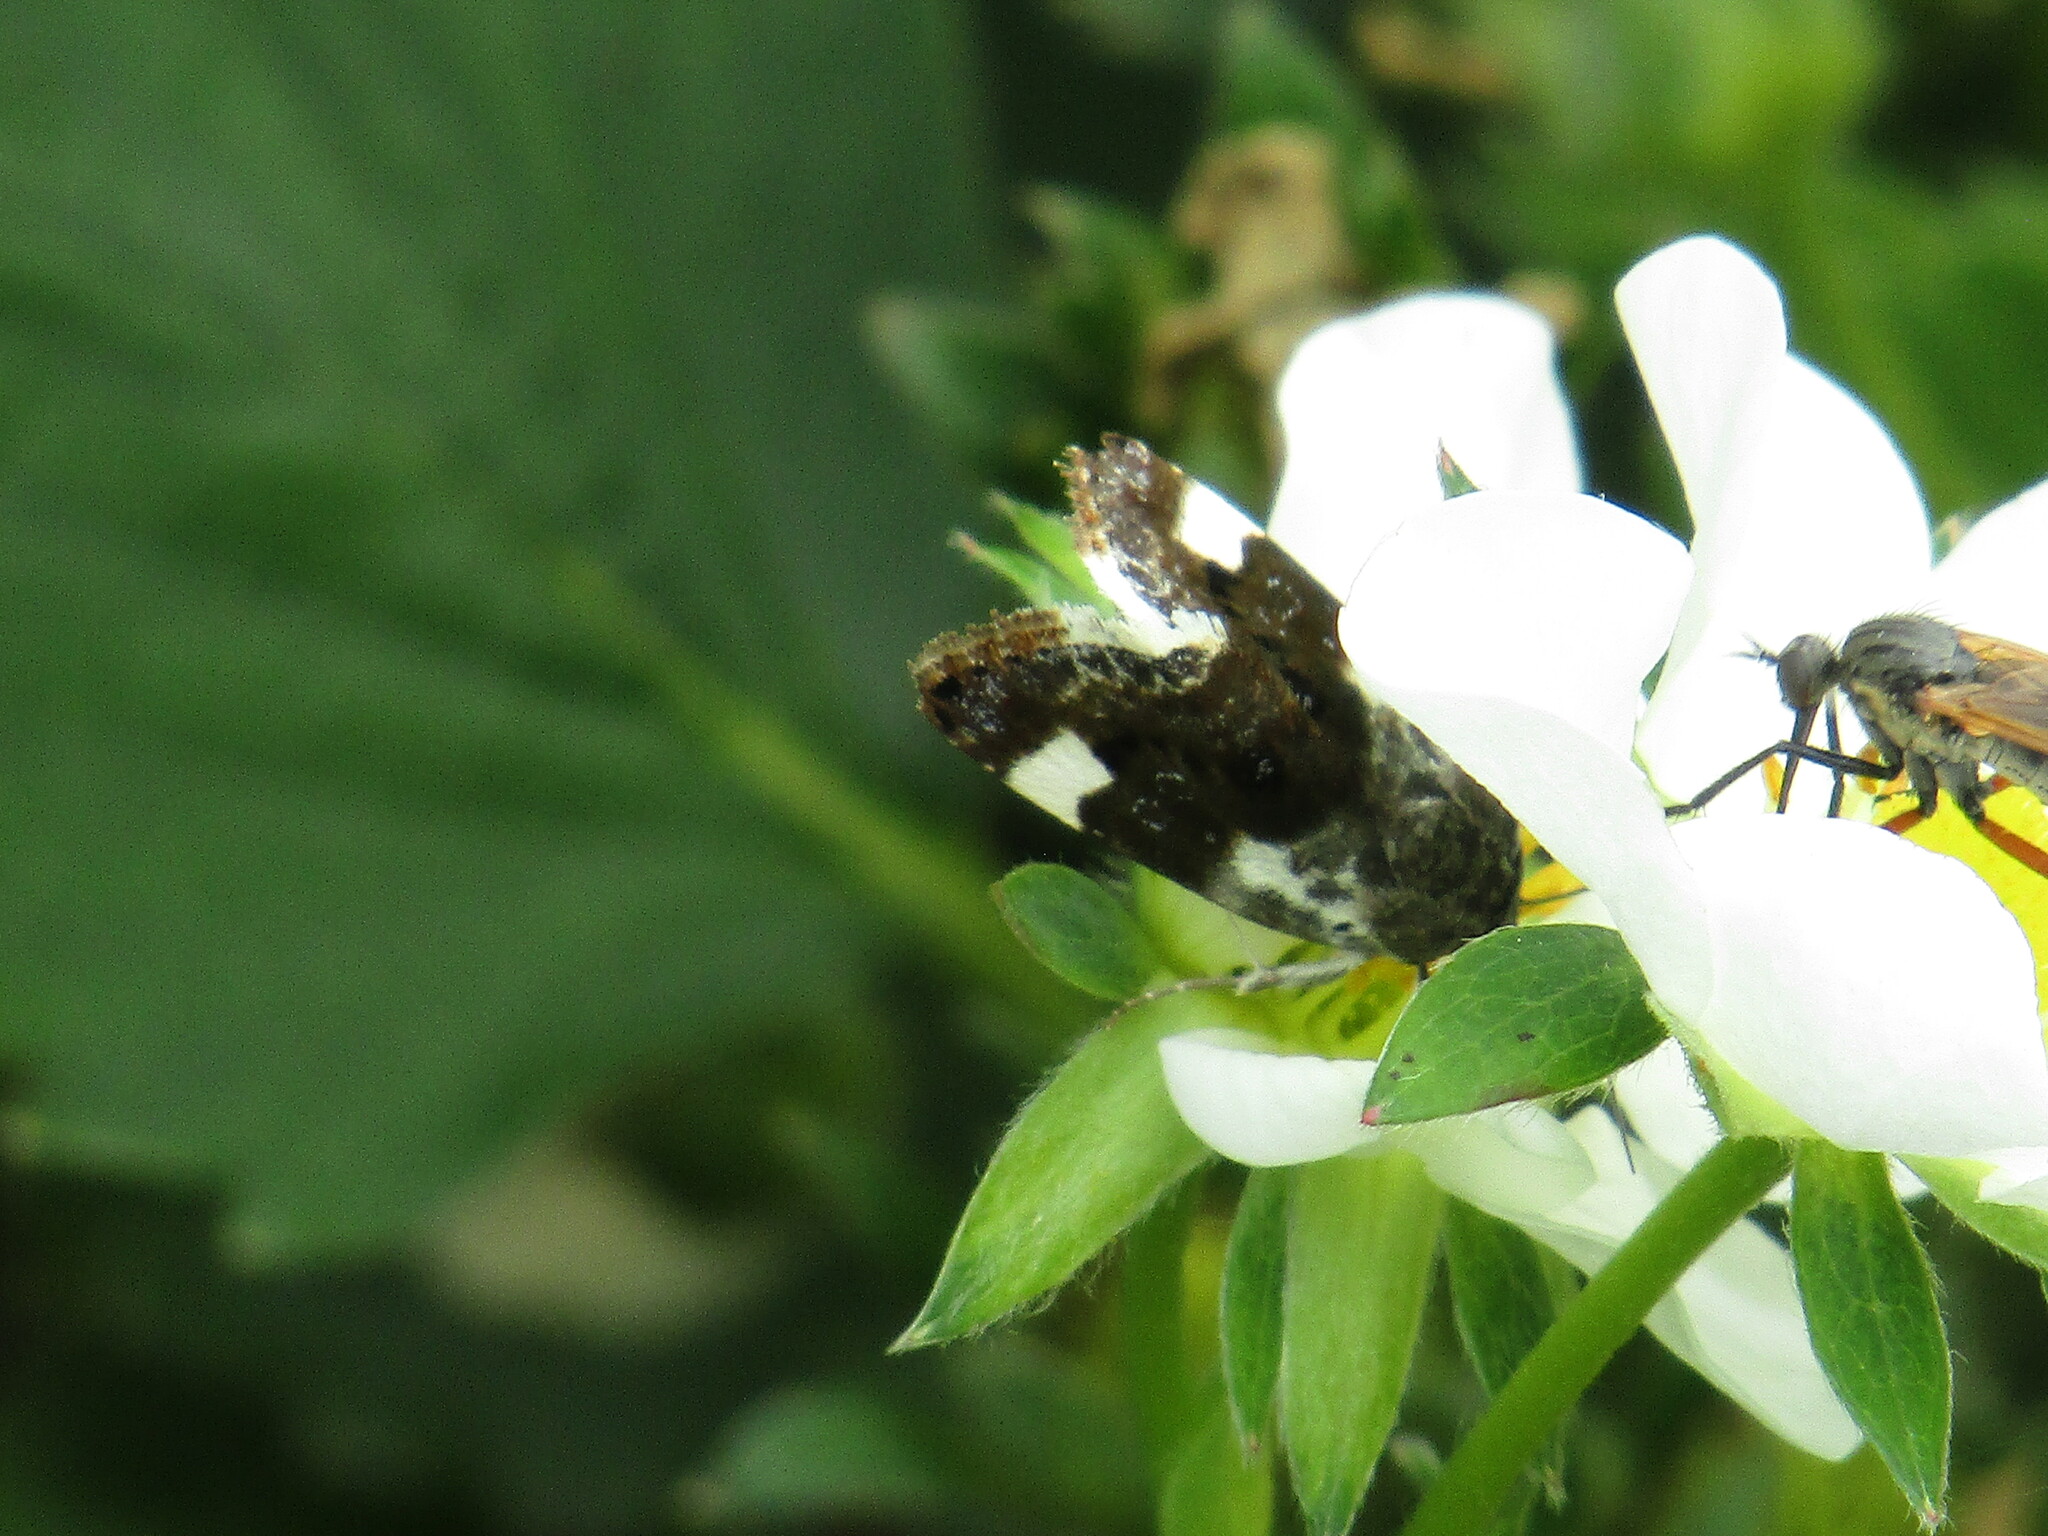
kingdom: Animalia
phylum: Arthropoda
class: Insecta
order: Lepidoptera
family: Noctuidae
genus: Acontia
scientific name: Acontia lucida
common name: Pale shoulder
